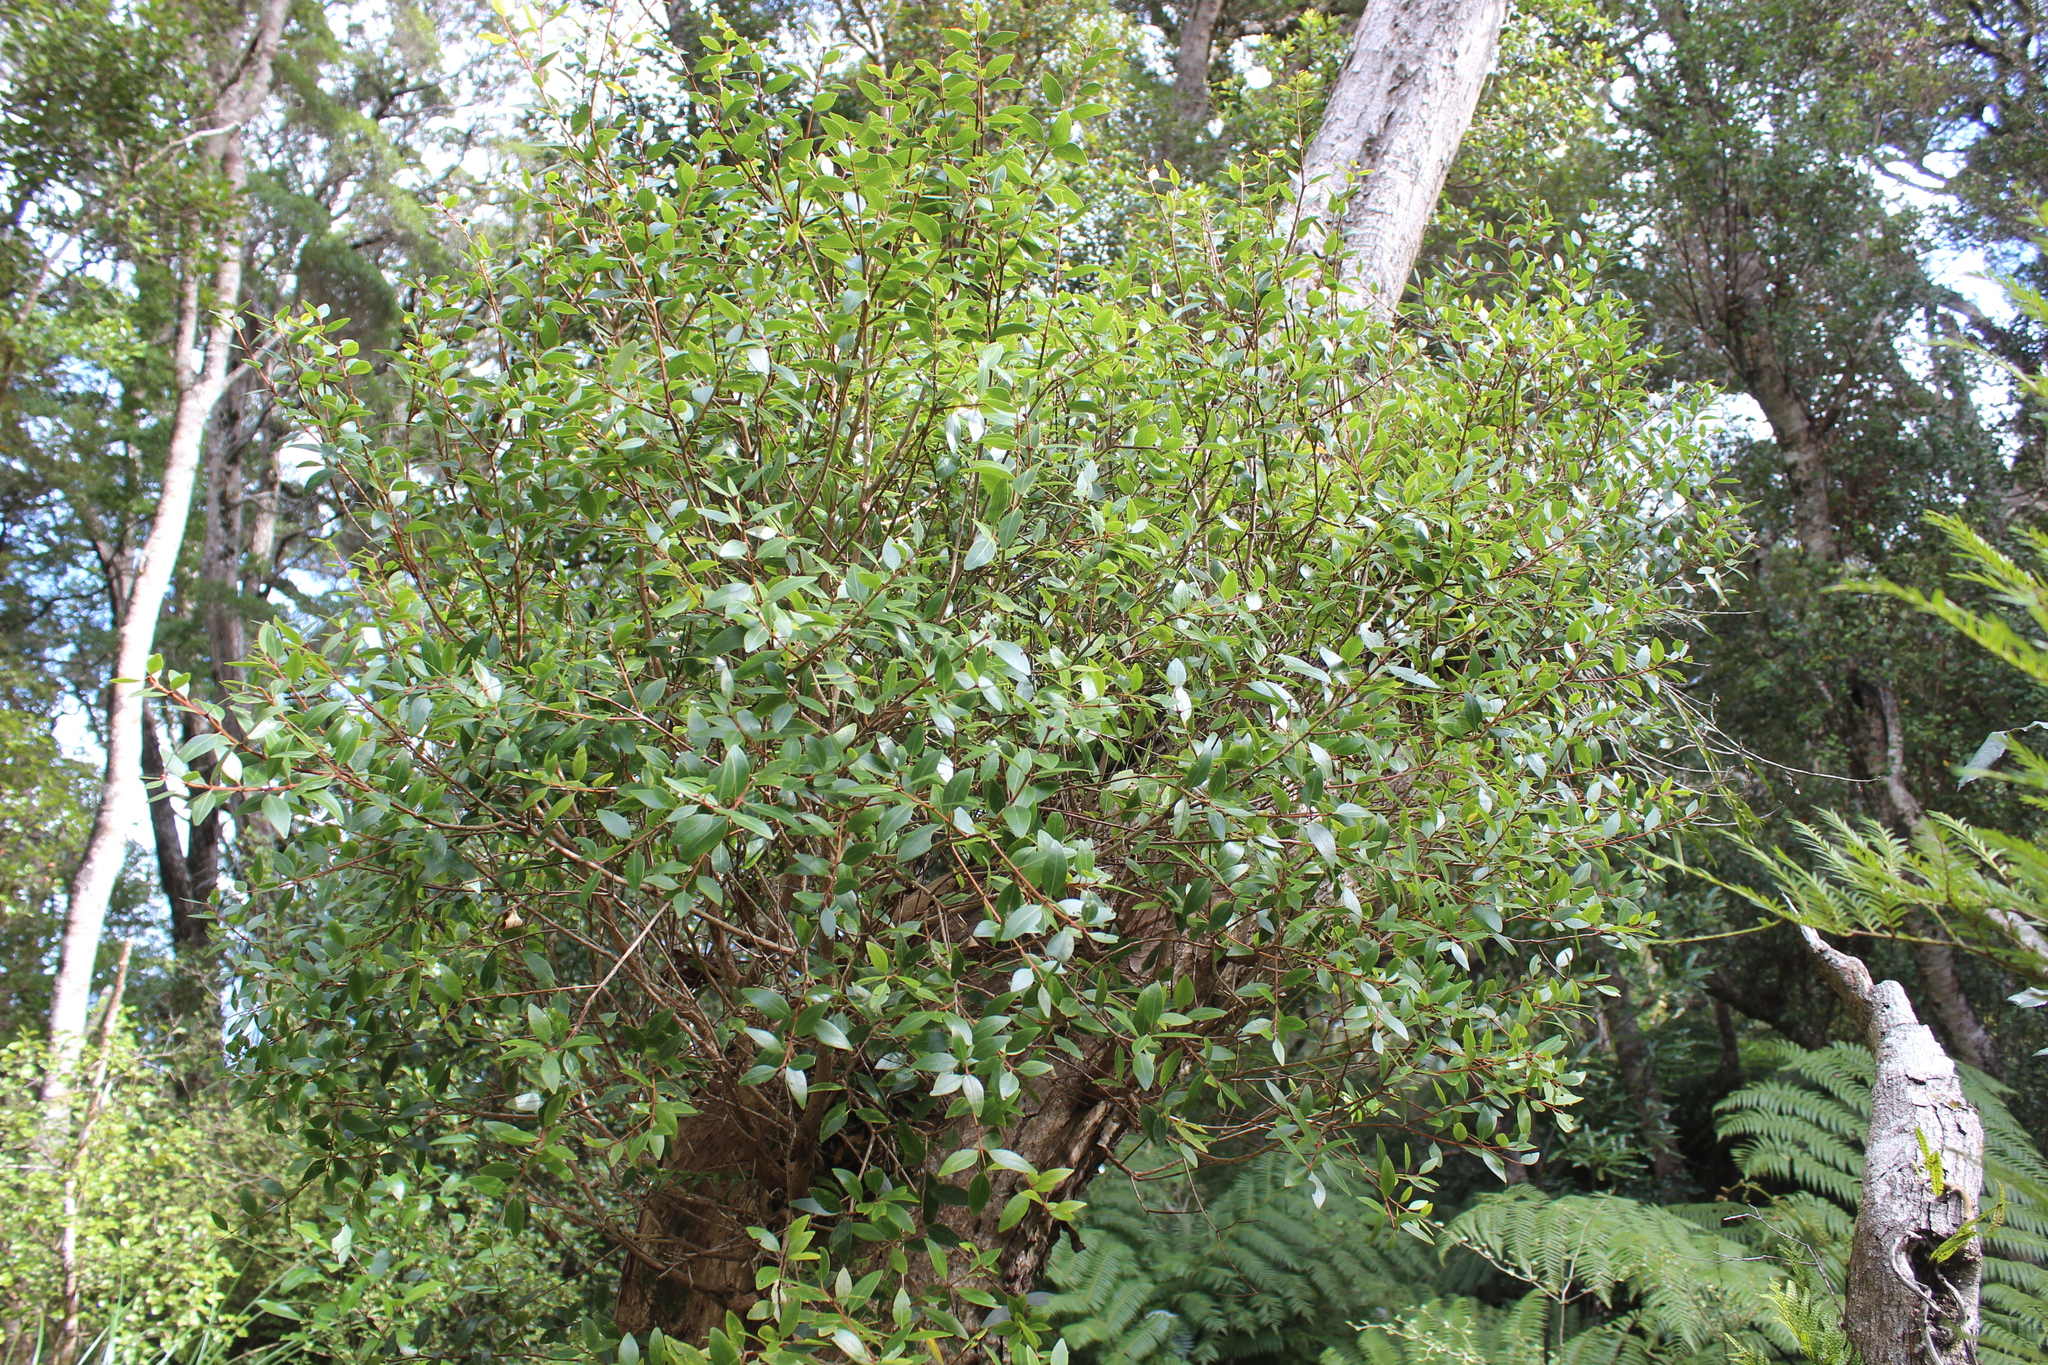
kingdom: Plantae
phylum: Tracheophyta
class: Magnoliopsida
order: Myrtales
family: Myrtaceae
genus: Metrosideros
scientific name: Metrosideros robusta
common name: Northern rata
